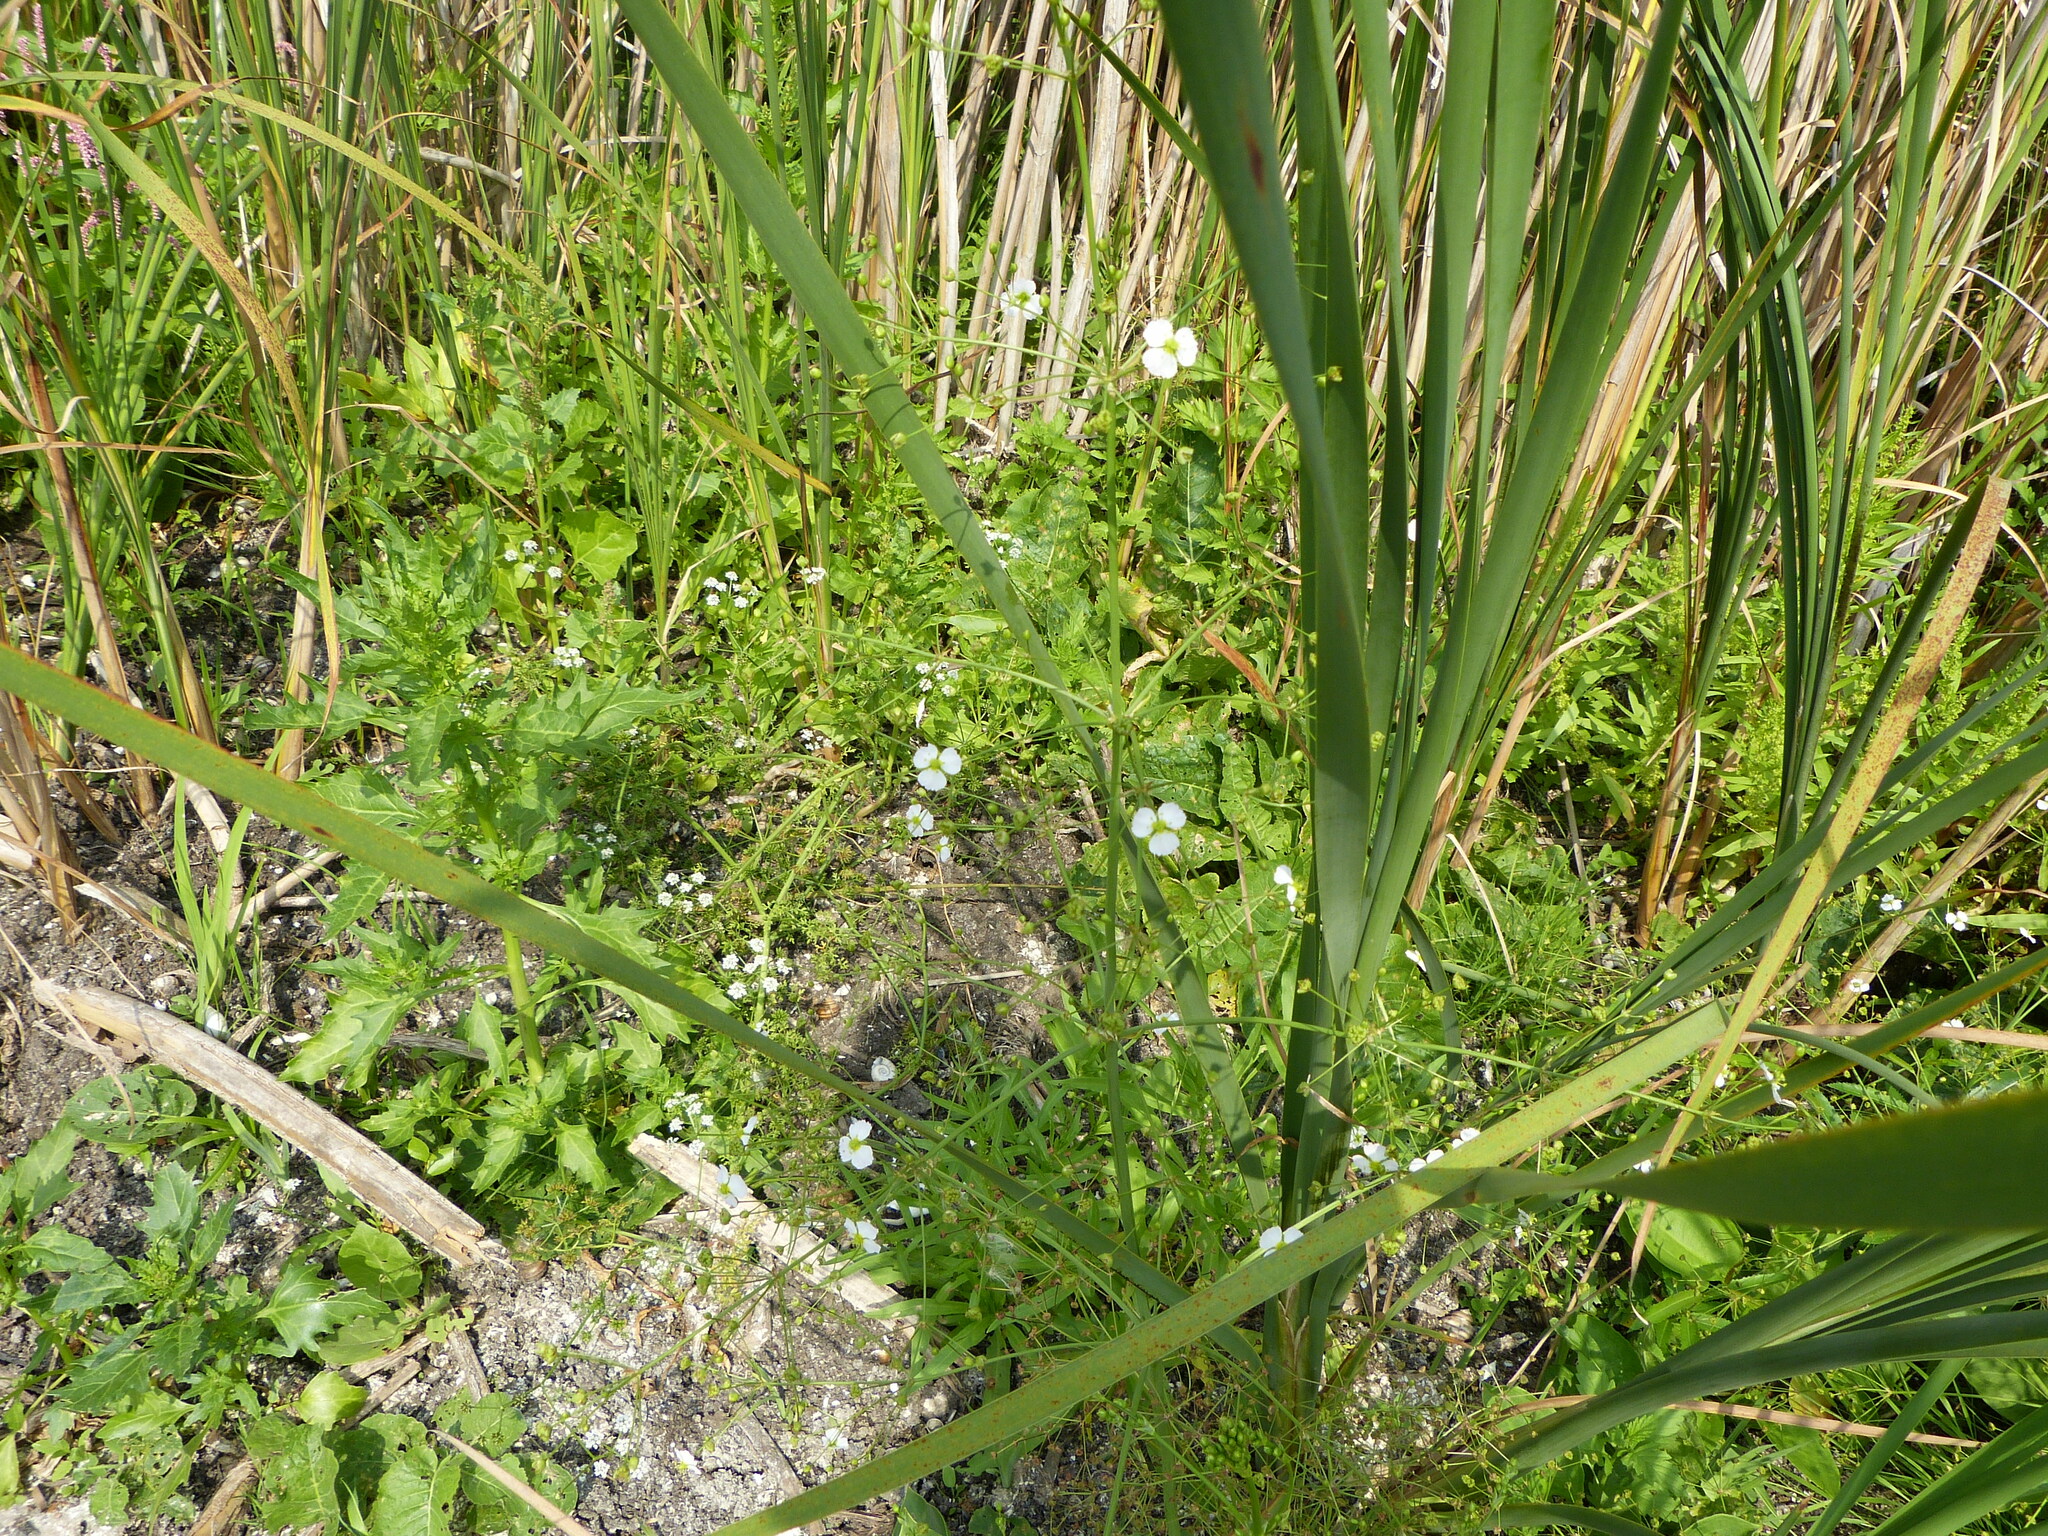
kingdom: Plantae
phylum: Tracheophyta
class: Liliopsida
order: Alismatales
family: Alismataceae
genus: Alisma
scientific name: Alisma plantago-aquatica
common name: Water-plantain
